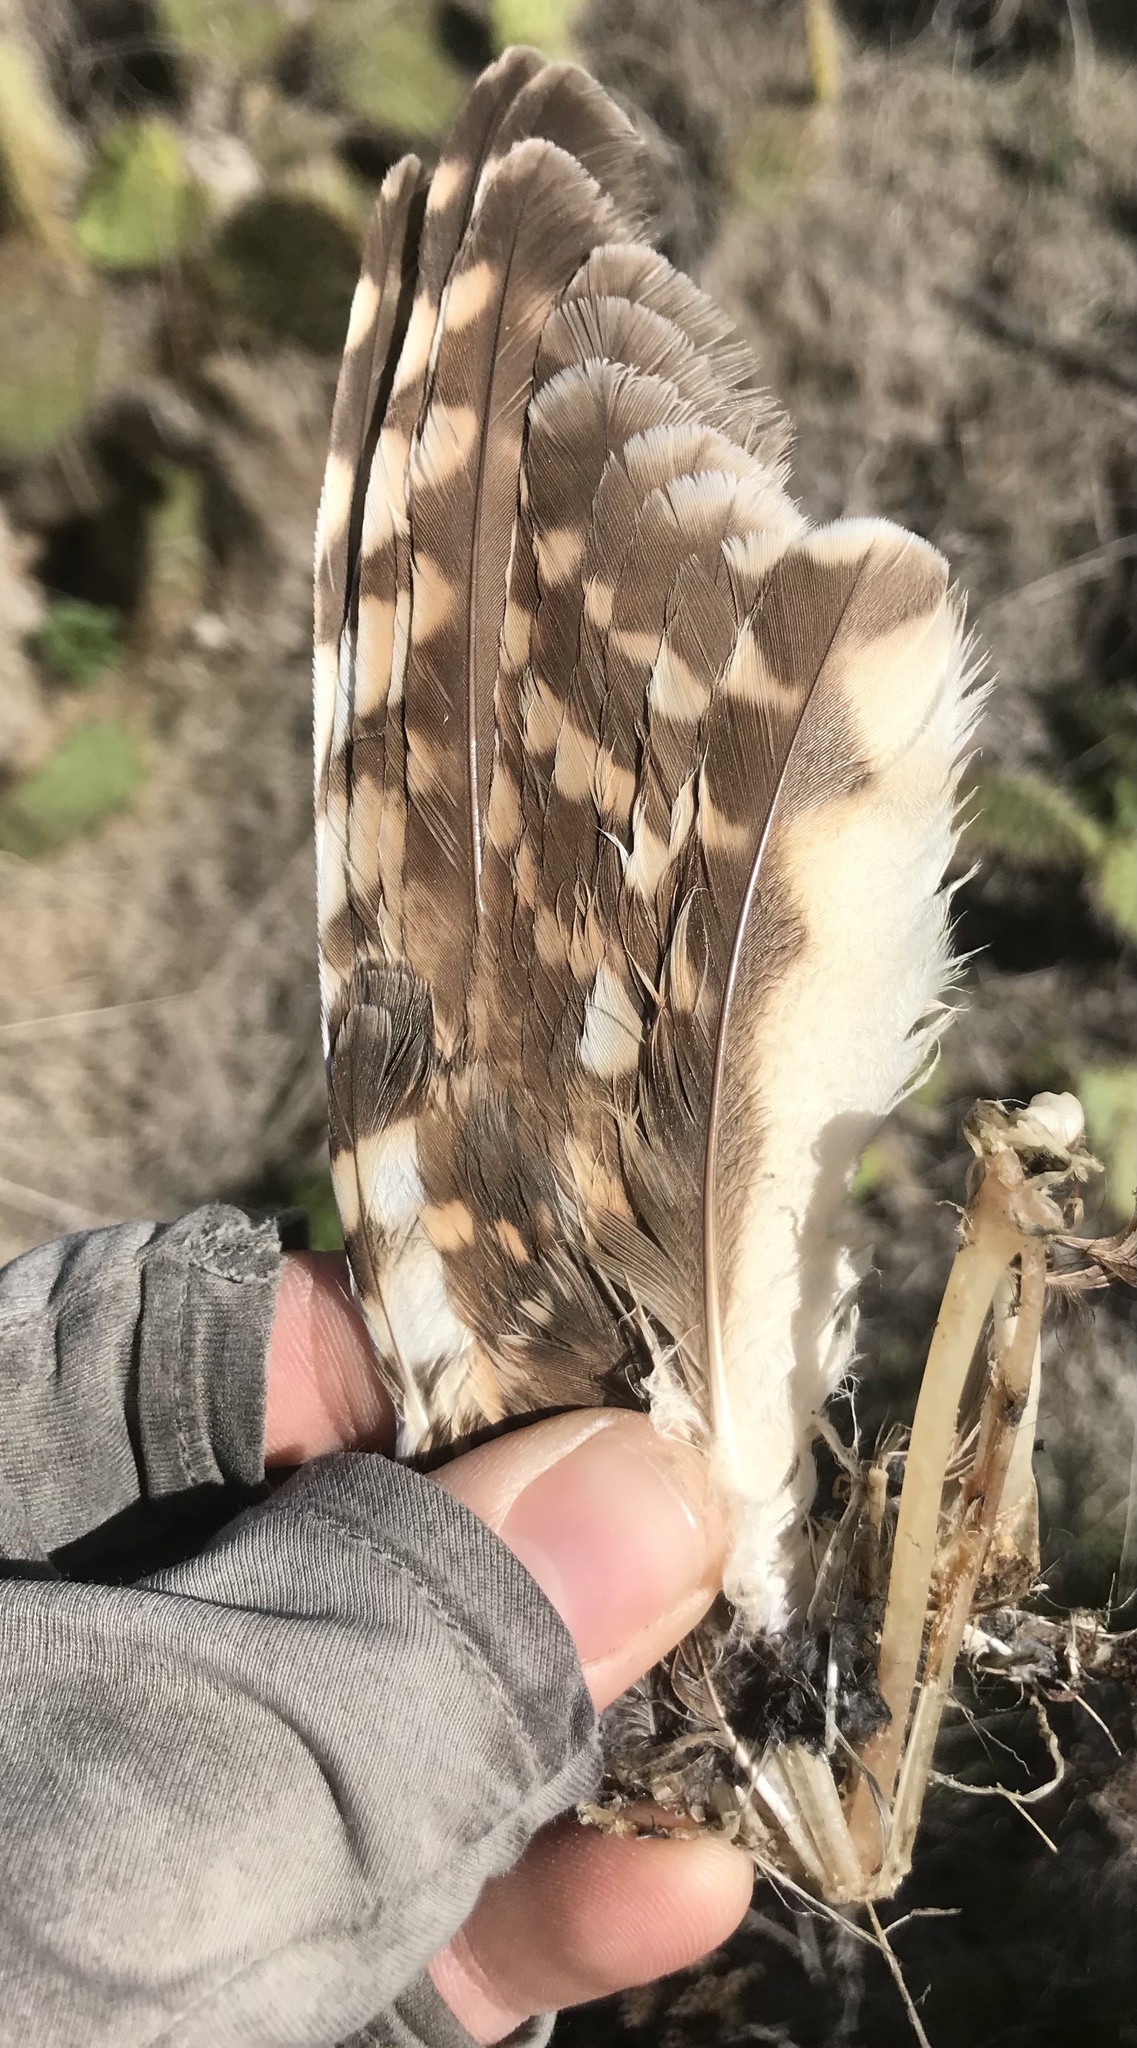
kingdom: Animalia
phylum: Chordata
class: Aves
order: Strigiformes
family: Strigidae
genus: Athene
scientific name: Athene cunicularia
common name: Burrowing owl
